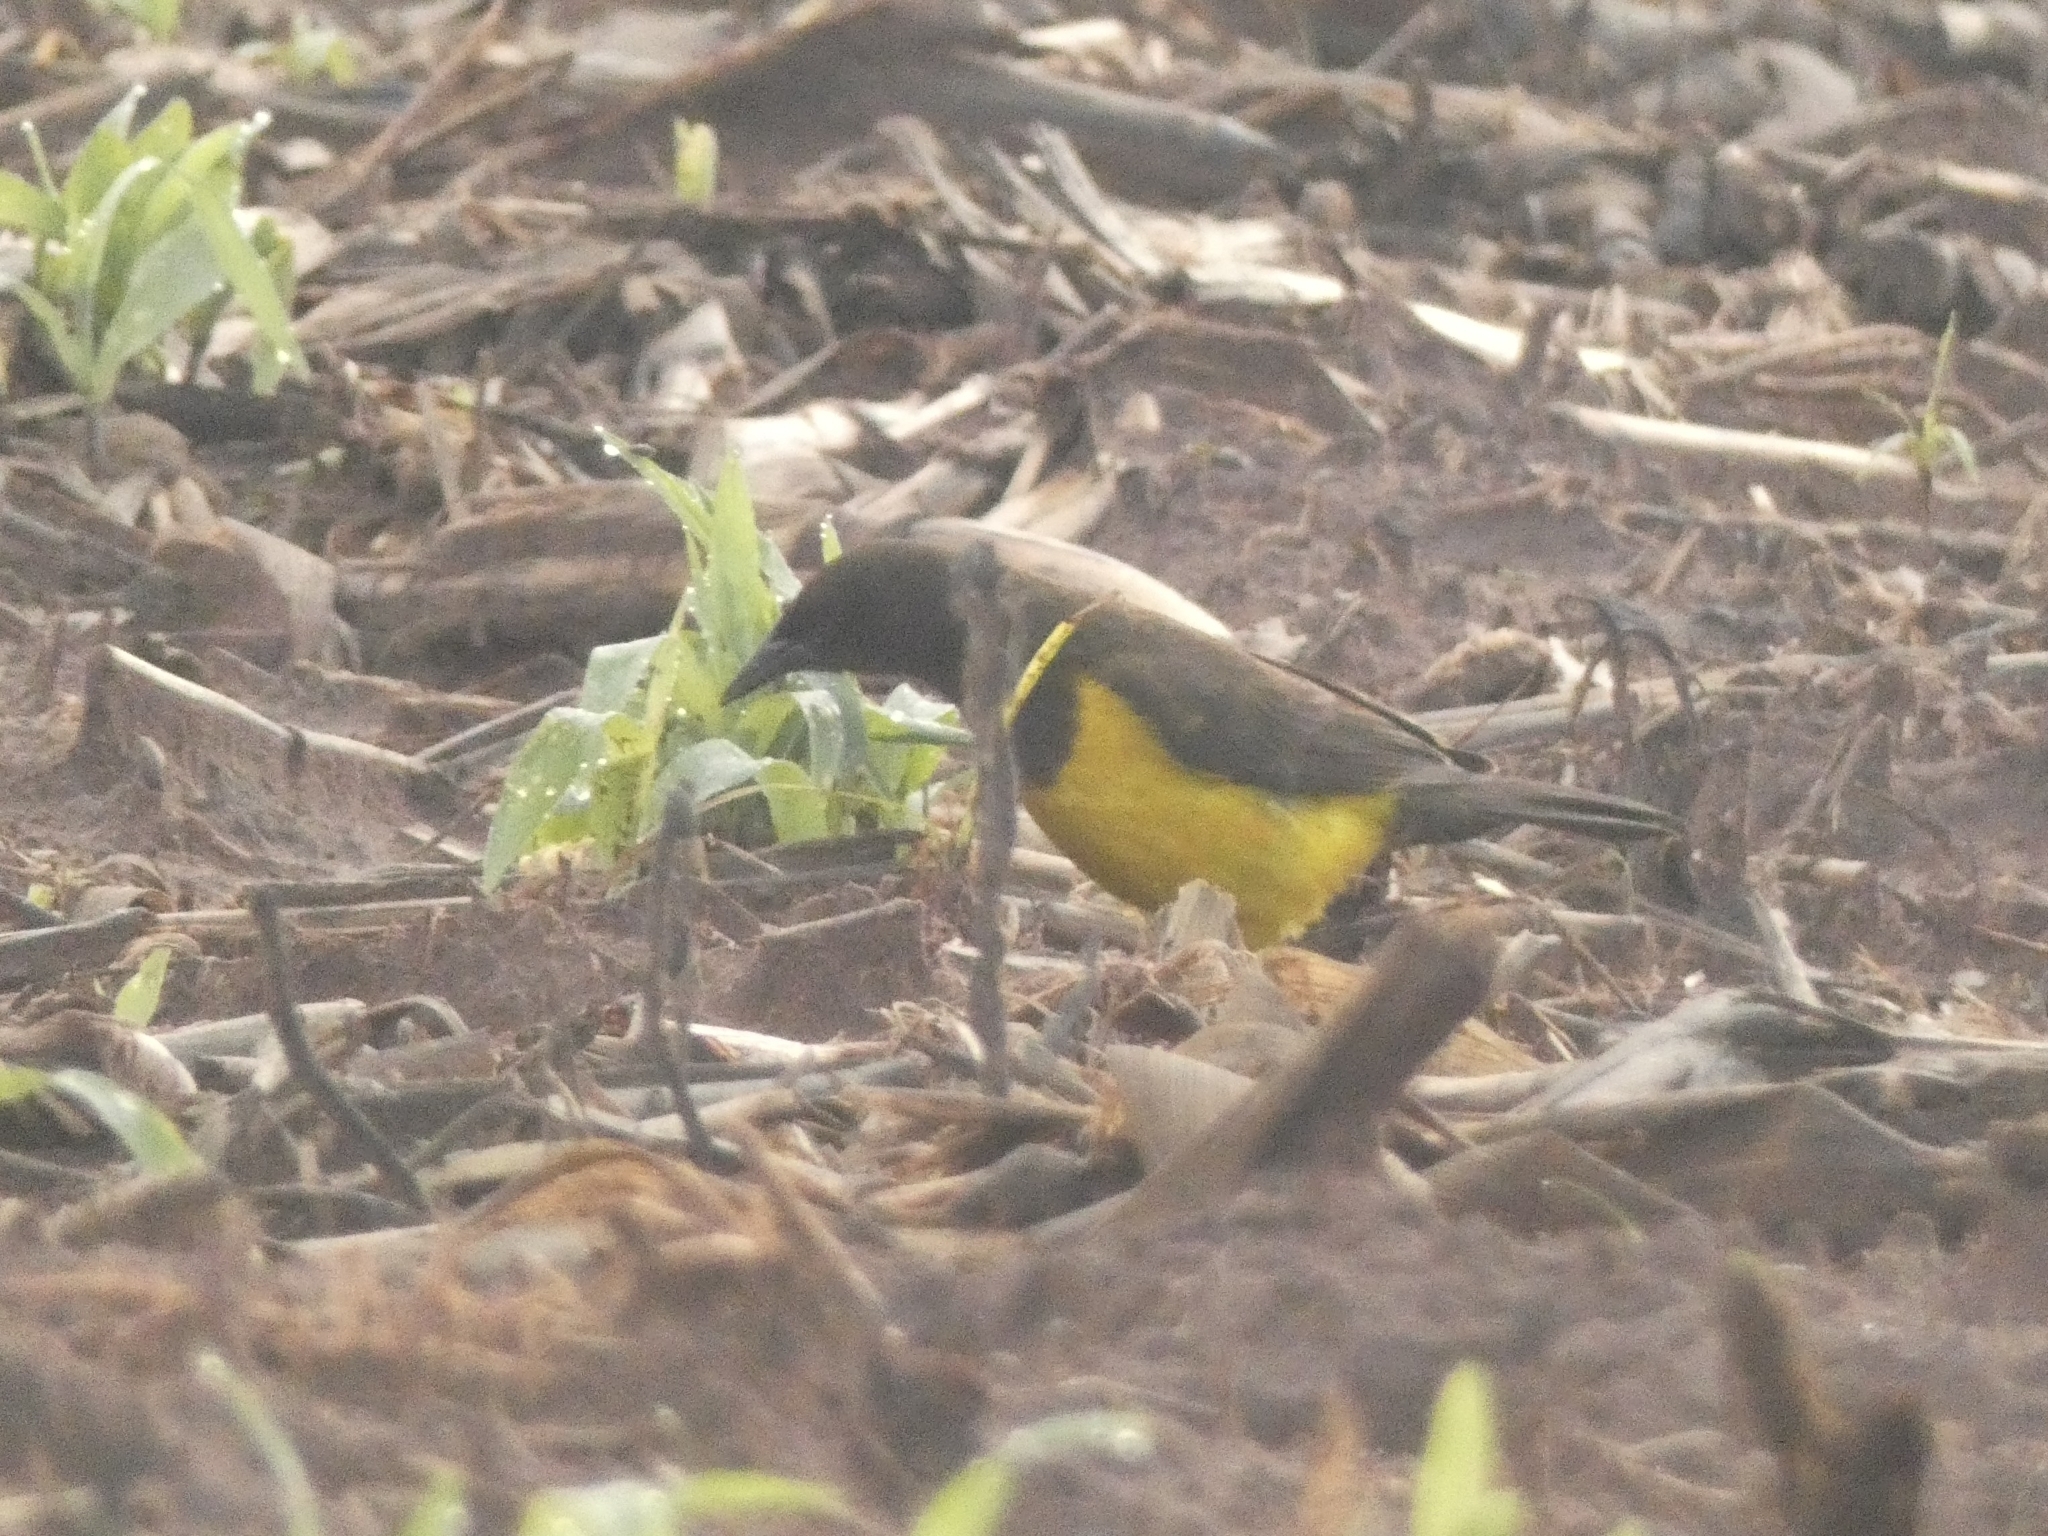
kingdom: Animalia
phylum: Chordata
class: Aves
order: Passeriformes
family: Icteridae
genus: Pseudoleistes
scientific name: Pseudoleistes guirahuro
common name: Yellow-rumped marshbird
